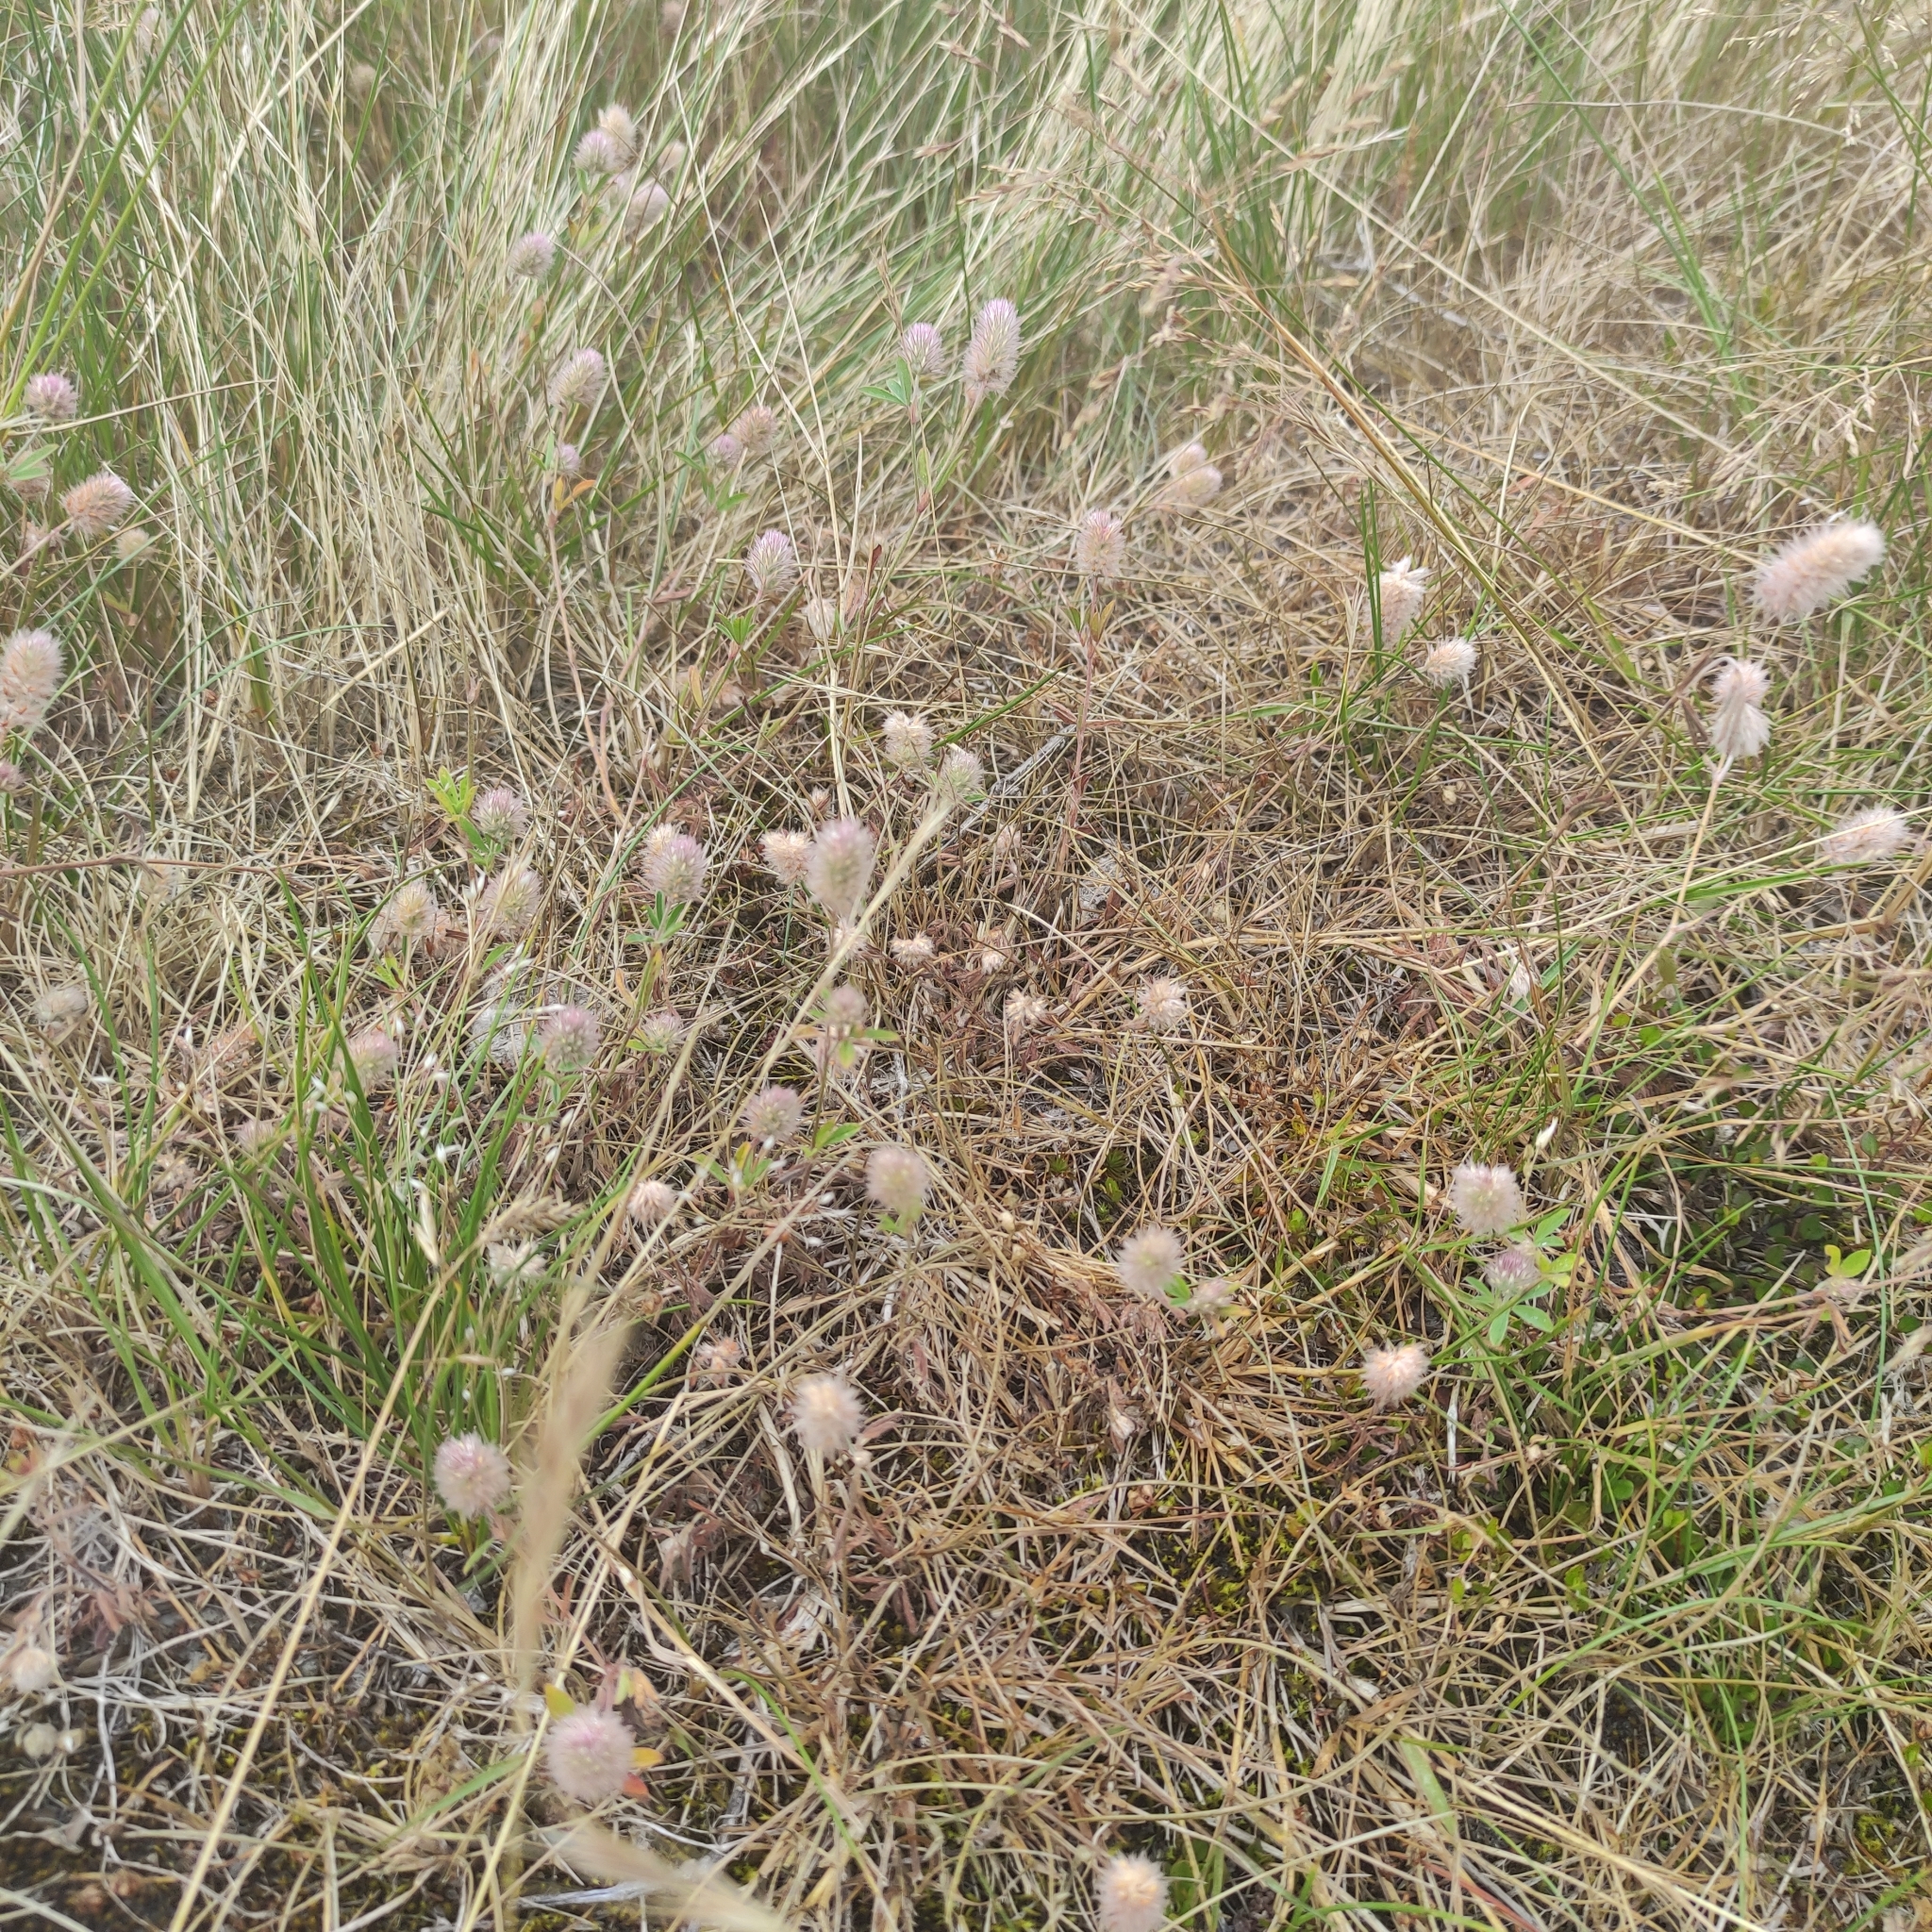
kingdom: Plantae
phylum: Tracheophyta
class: Magnoliopsida
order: Fabales
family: Fabaceae
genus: Trifolium
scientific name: Trifolium arvense
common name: Hare's-foot clover
